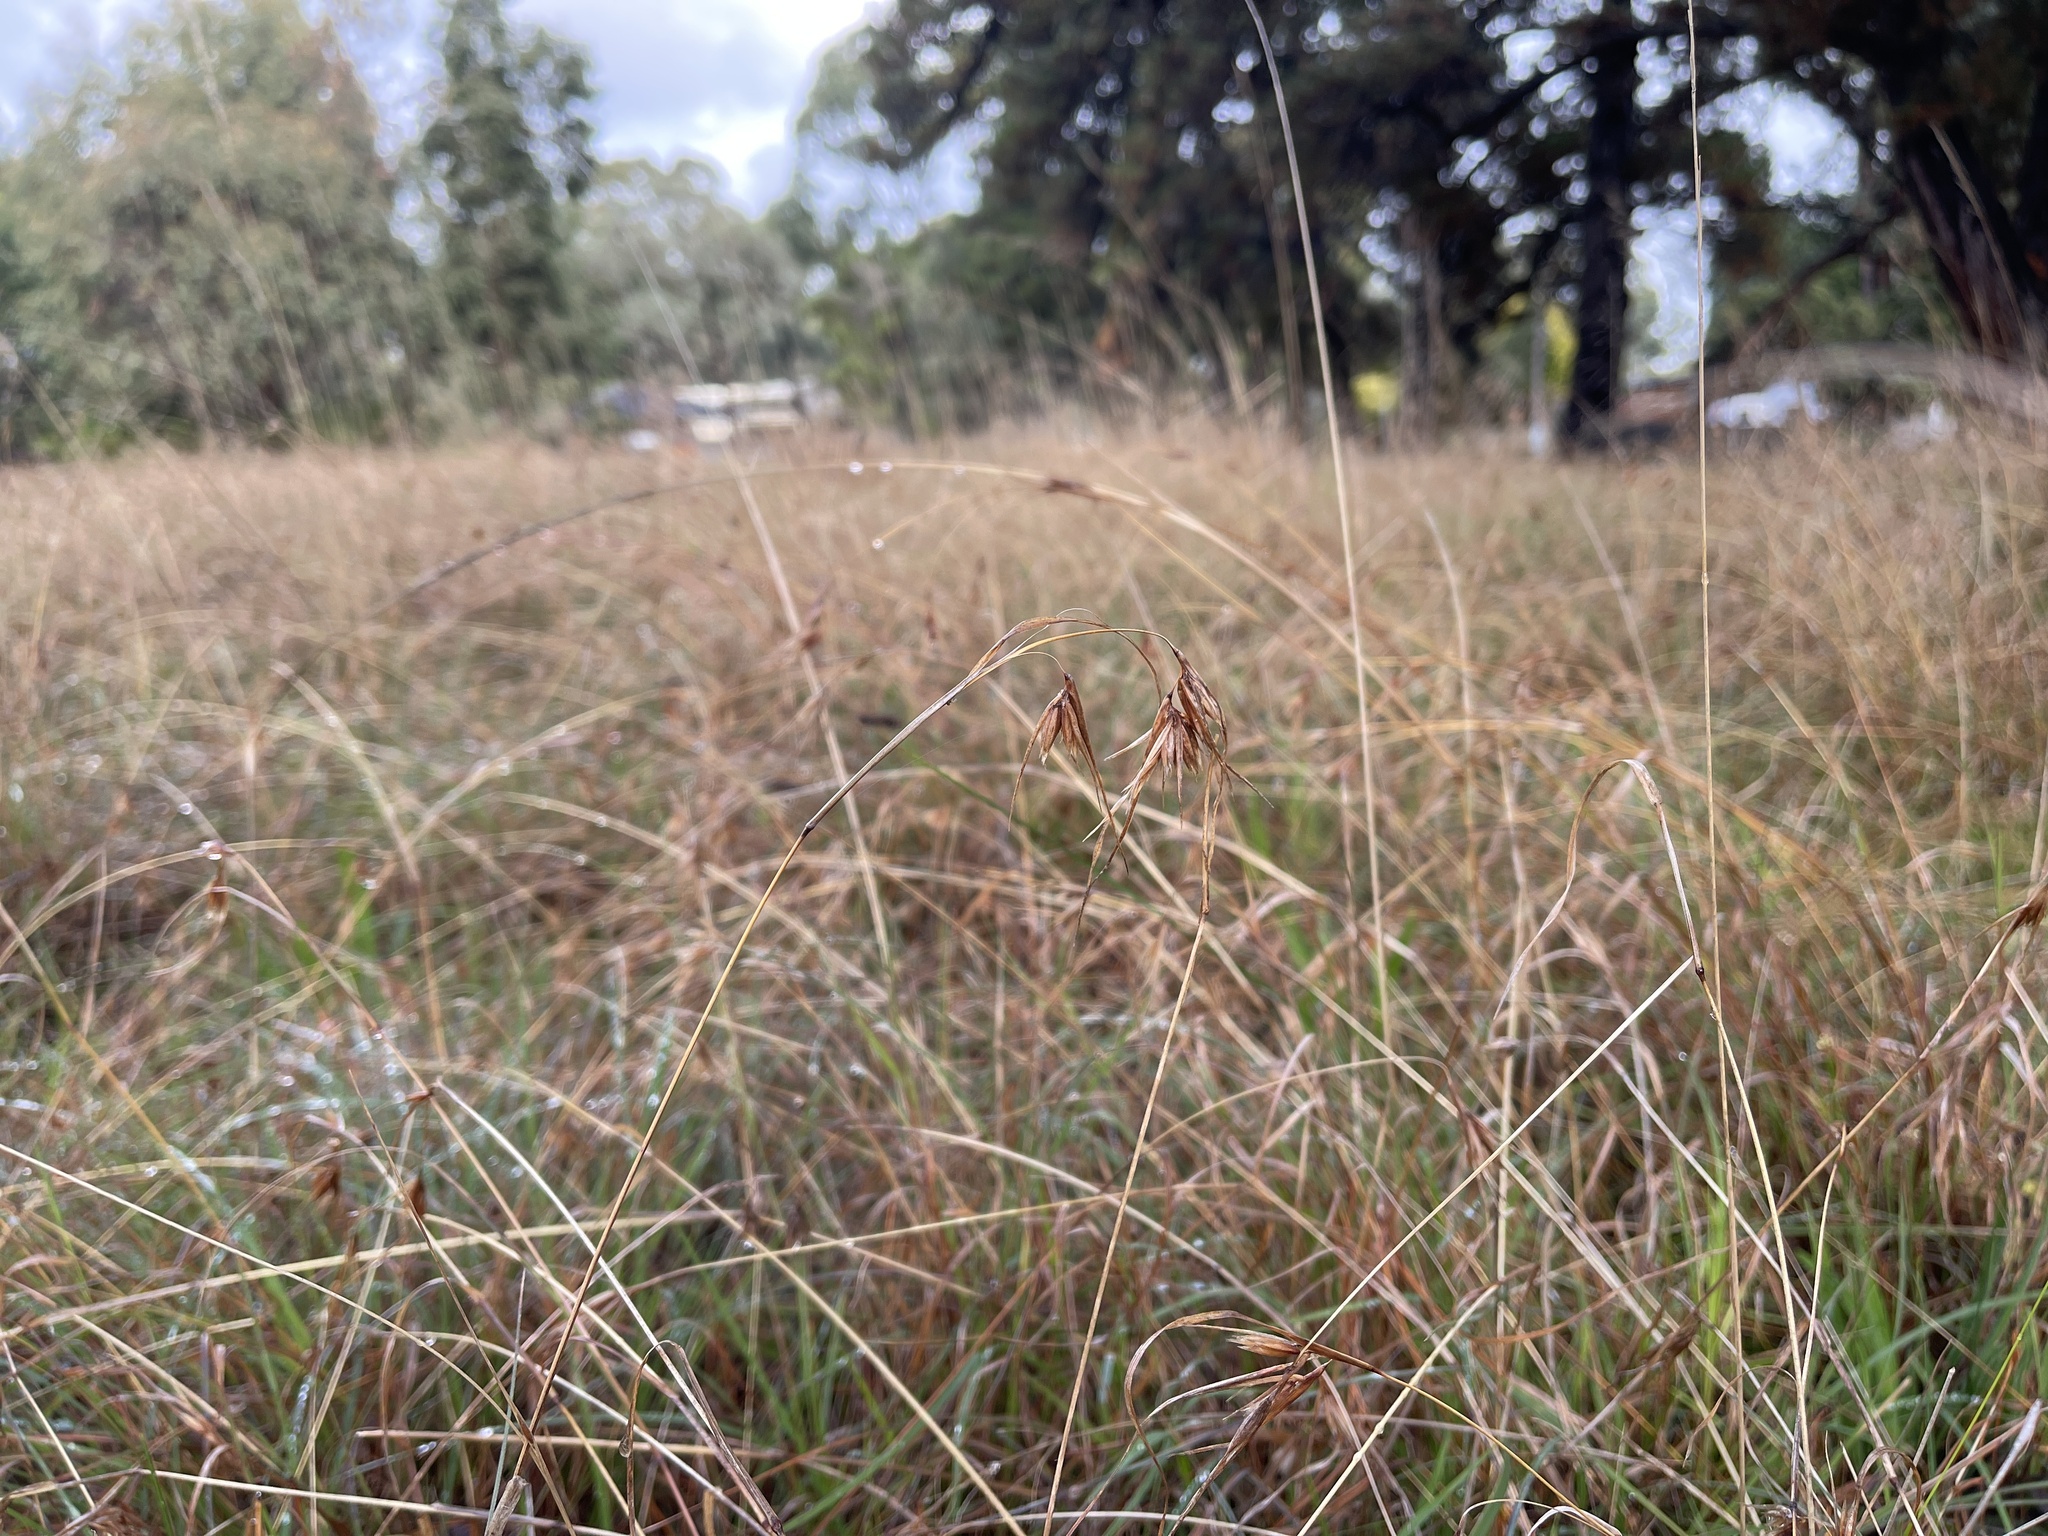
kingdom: Plantae
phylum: Tracheophyta
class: Liliopsida
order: Poales
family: Poaceae
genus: Themeda
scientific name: Themeda triandra
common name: Kangaroo grass
